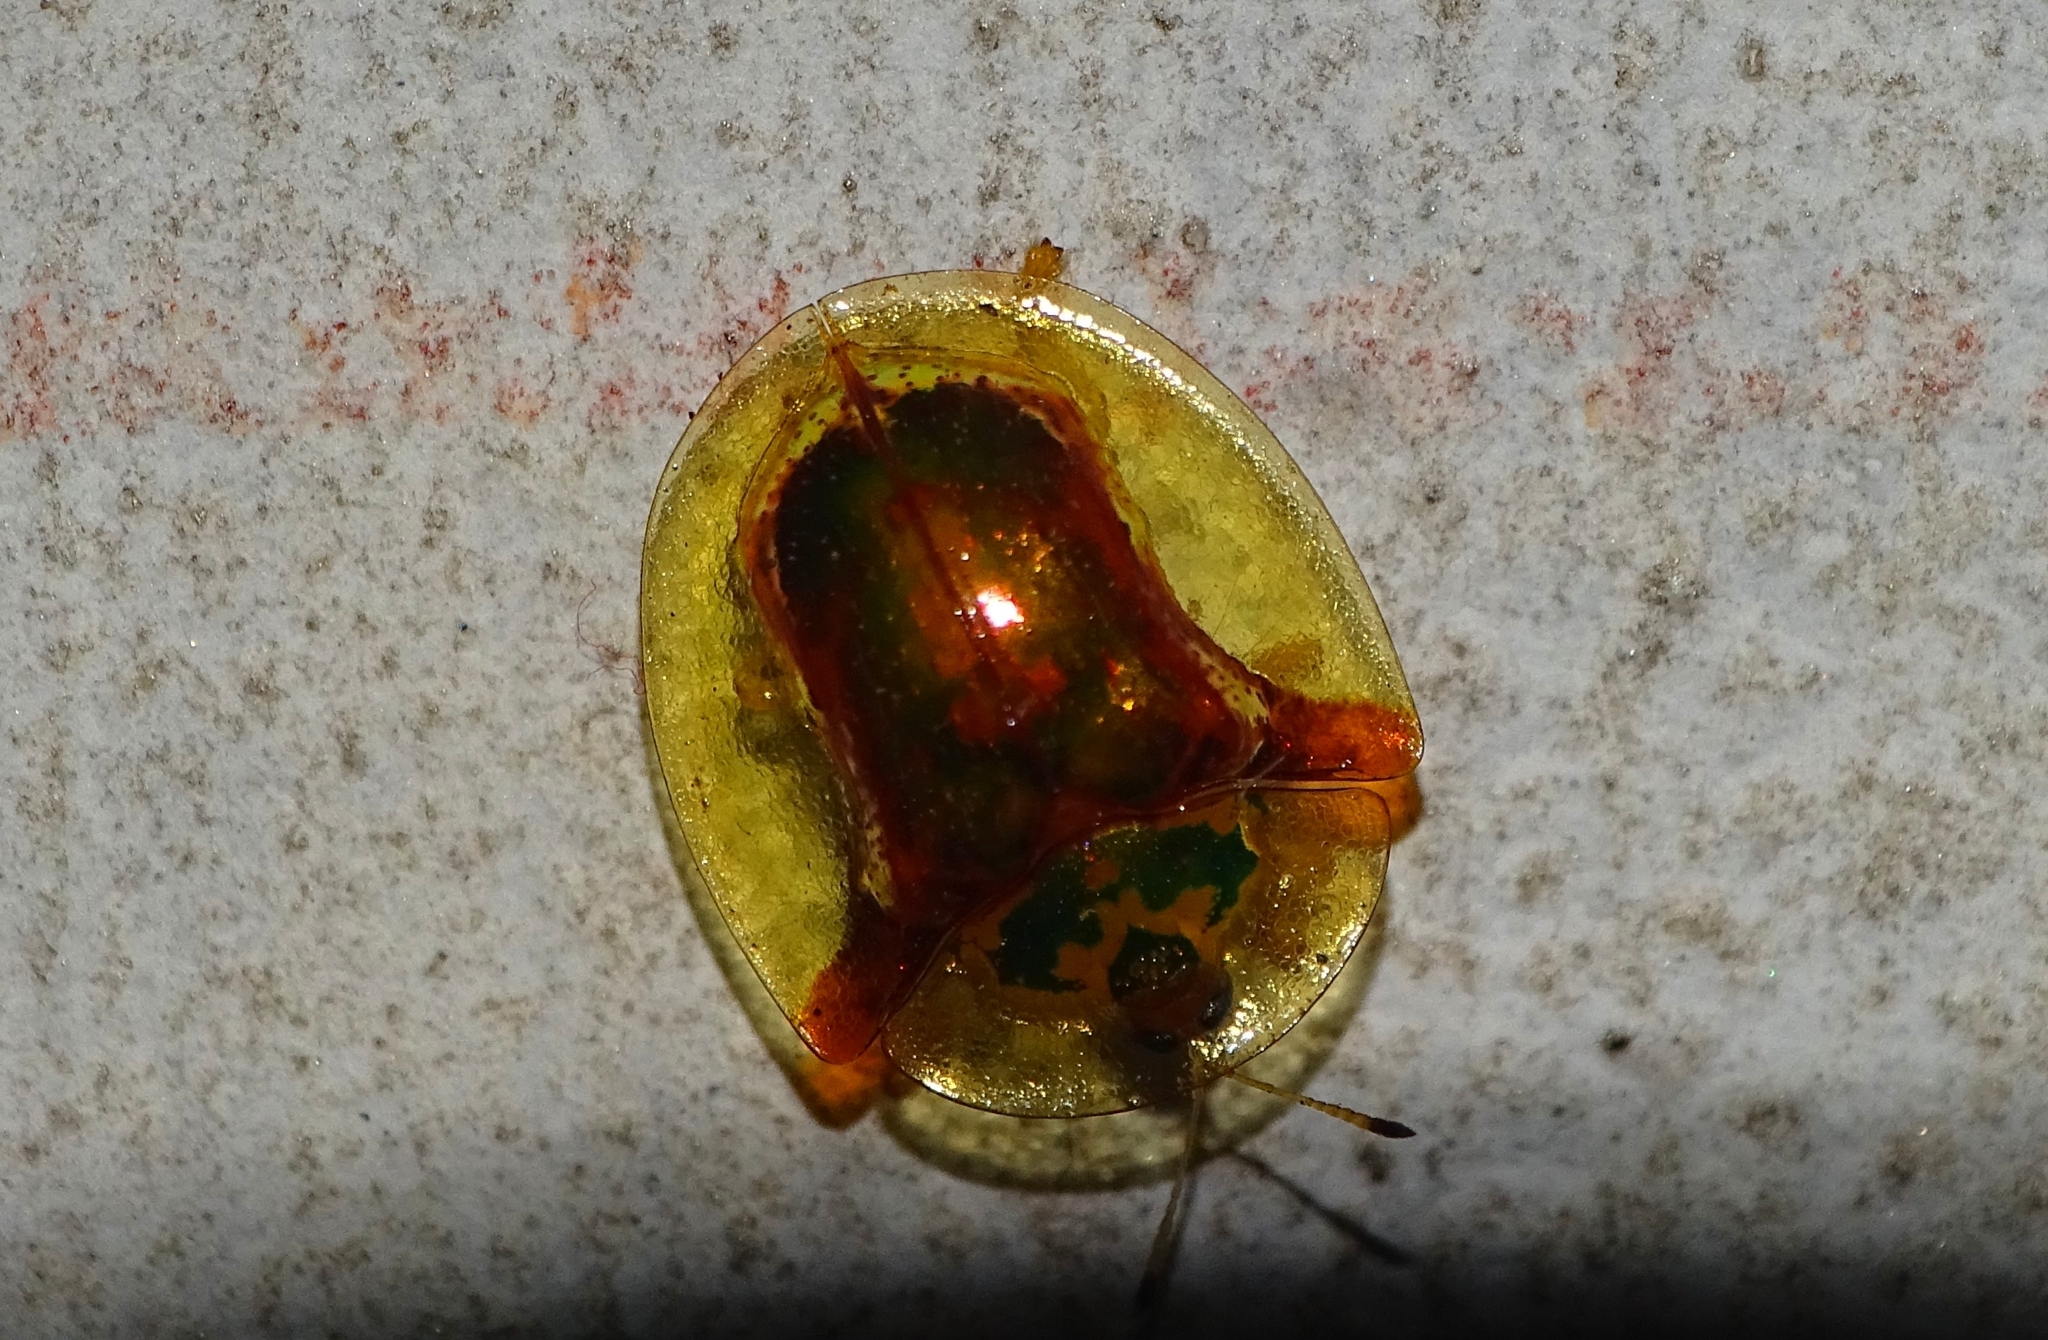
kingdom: Animalia
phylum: Arthropoda
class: Insecta
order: Coleoptera
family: Chrysomelidae
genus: Aspidimorpha
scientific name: Aspidimorpha furcata
